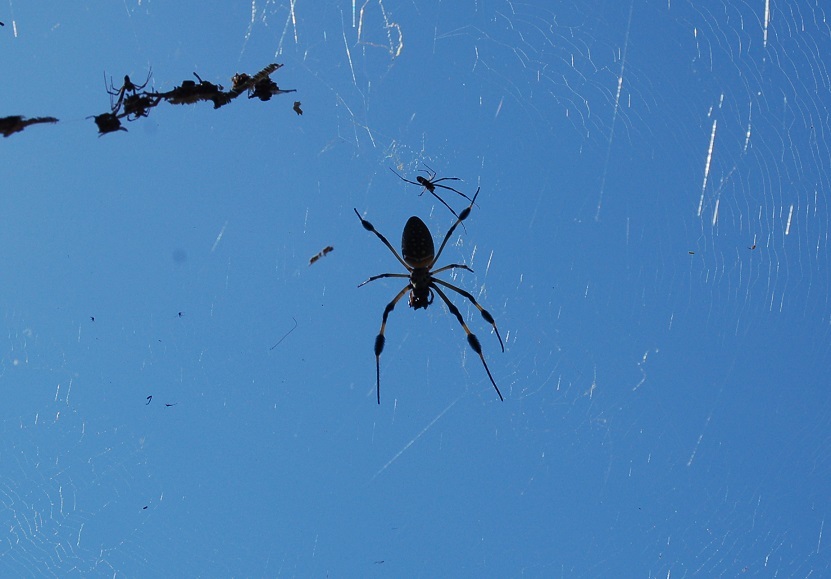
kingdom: Animalia
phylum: Arthropoda
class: Arachnida
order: Araneae
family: Araneidae
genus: Trichonephila
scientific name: Trichonephila clavipes
